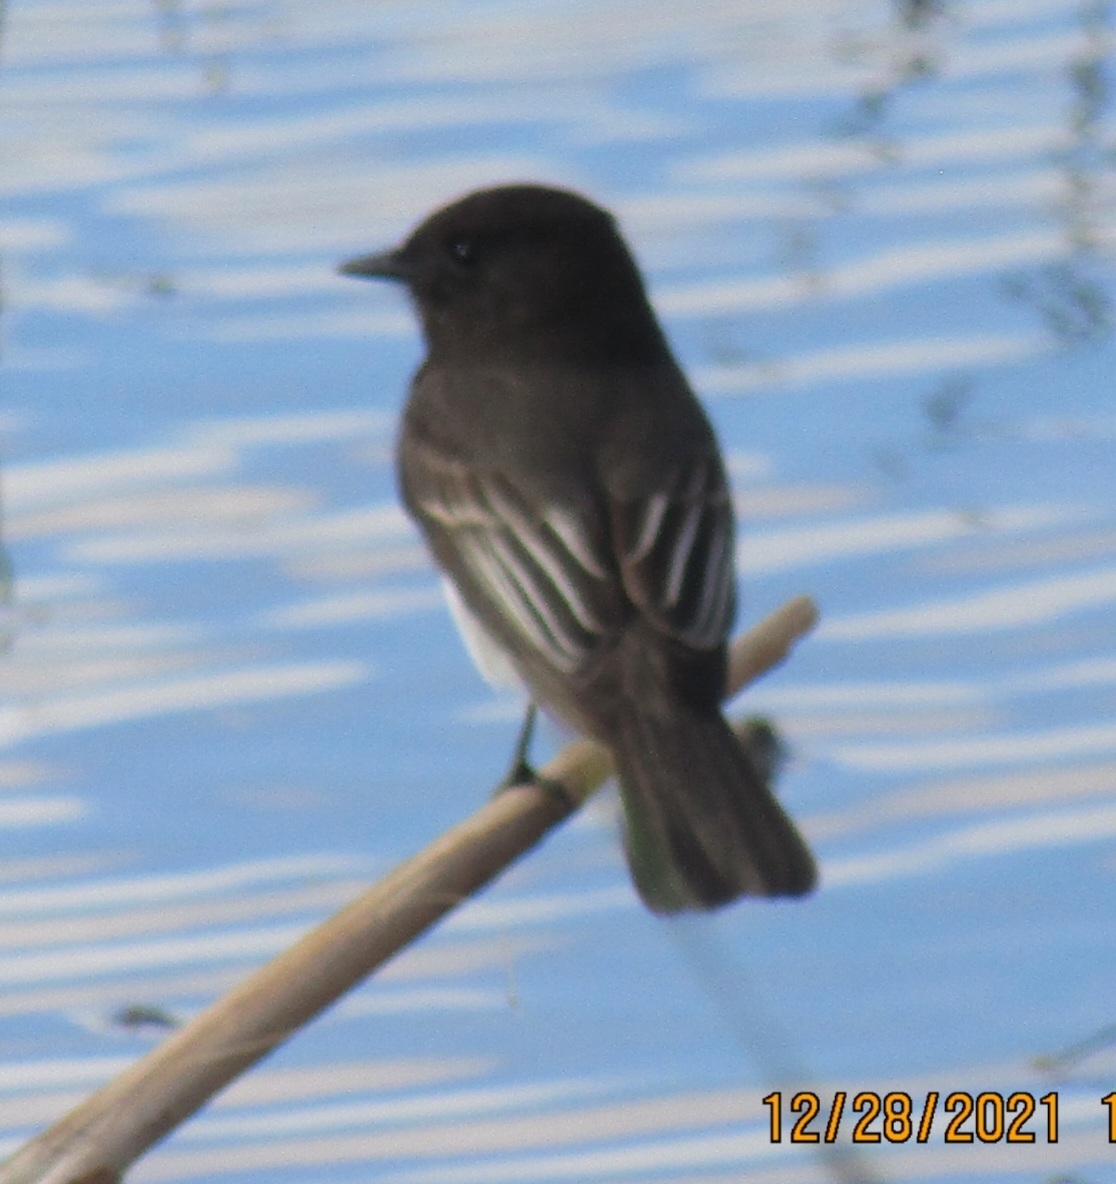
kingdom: Animalia
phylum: Chordata
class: Aves
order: Passeriformes
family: Tyrannidae
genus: Sayornis
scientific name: Sayornis nigricans
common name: Black phoebe
